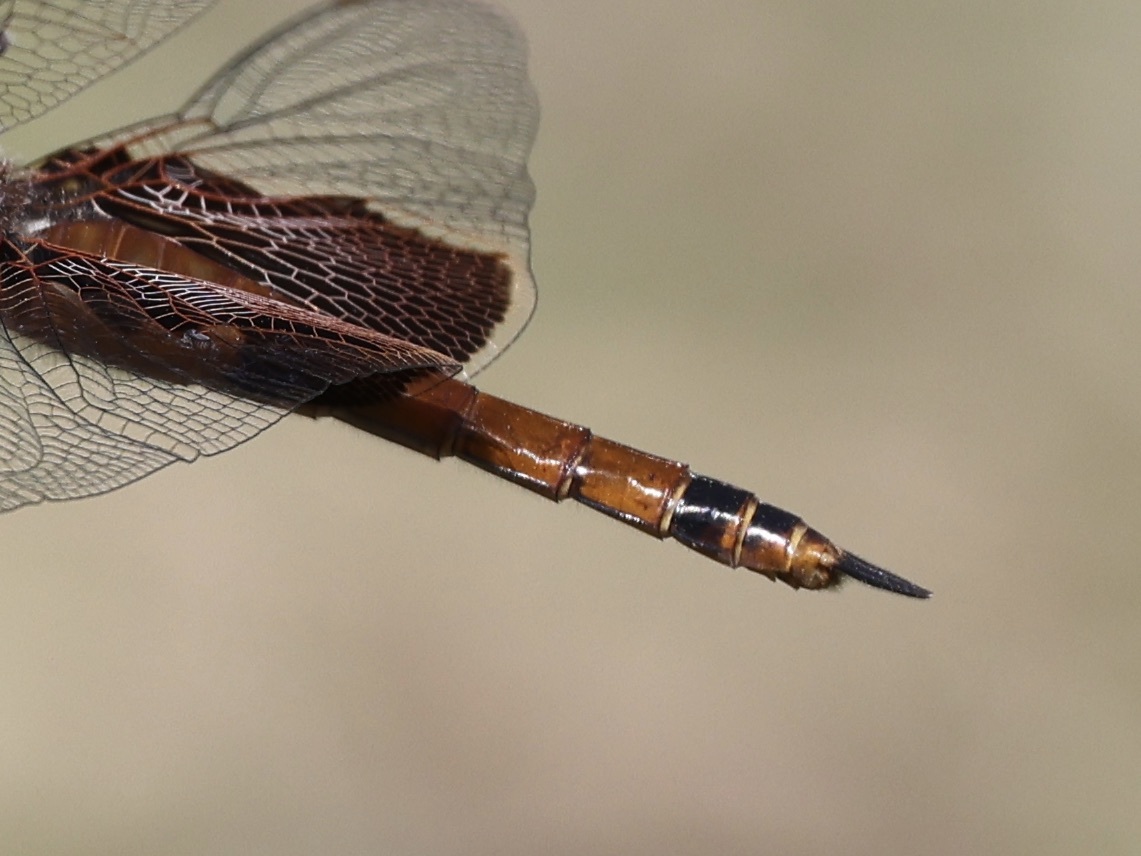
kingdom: Animalia
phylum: Arthropoda
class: Insecta
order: Odonata
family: Libellulidae
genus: Tramea
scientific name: Tramea carolina
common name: Carolina saddlebags
